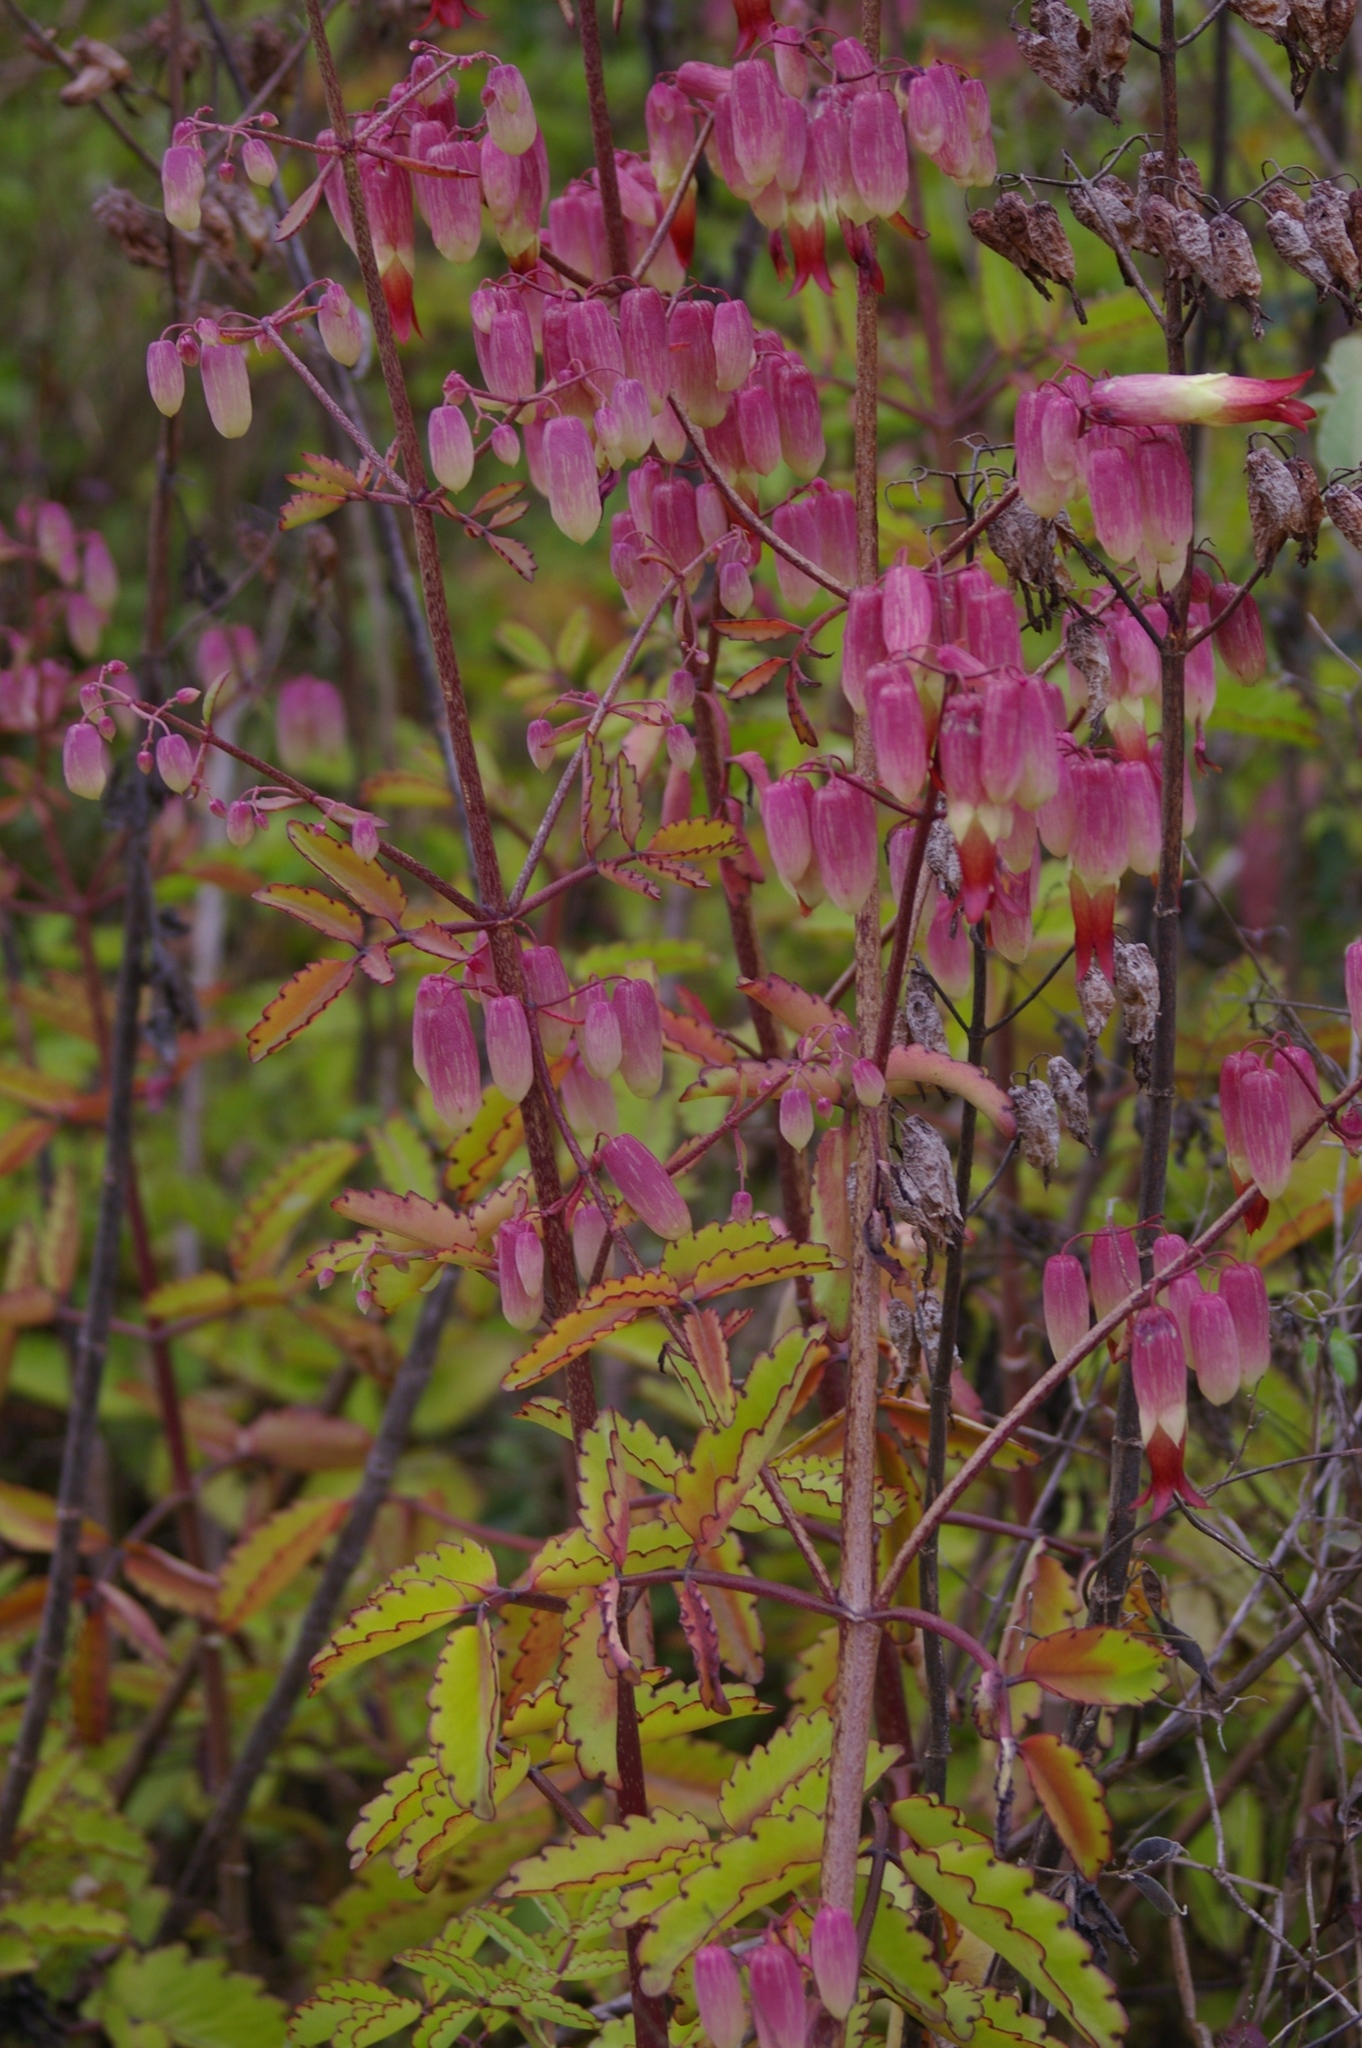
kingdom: Plantae
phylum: Tracheophyta
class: Magnoliopsida
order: Saxifragales
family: Crassulaceae
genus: Kalanchoe
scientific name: Kalanchoe pinnata
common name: Cathedral bells
